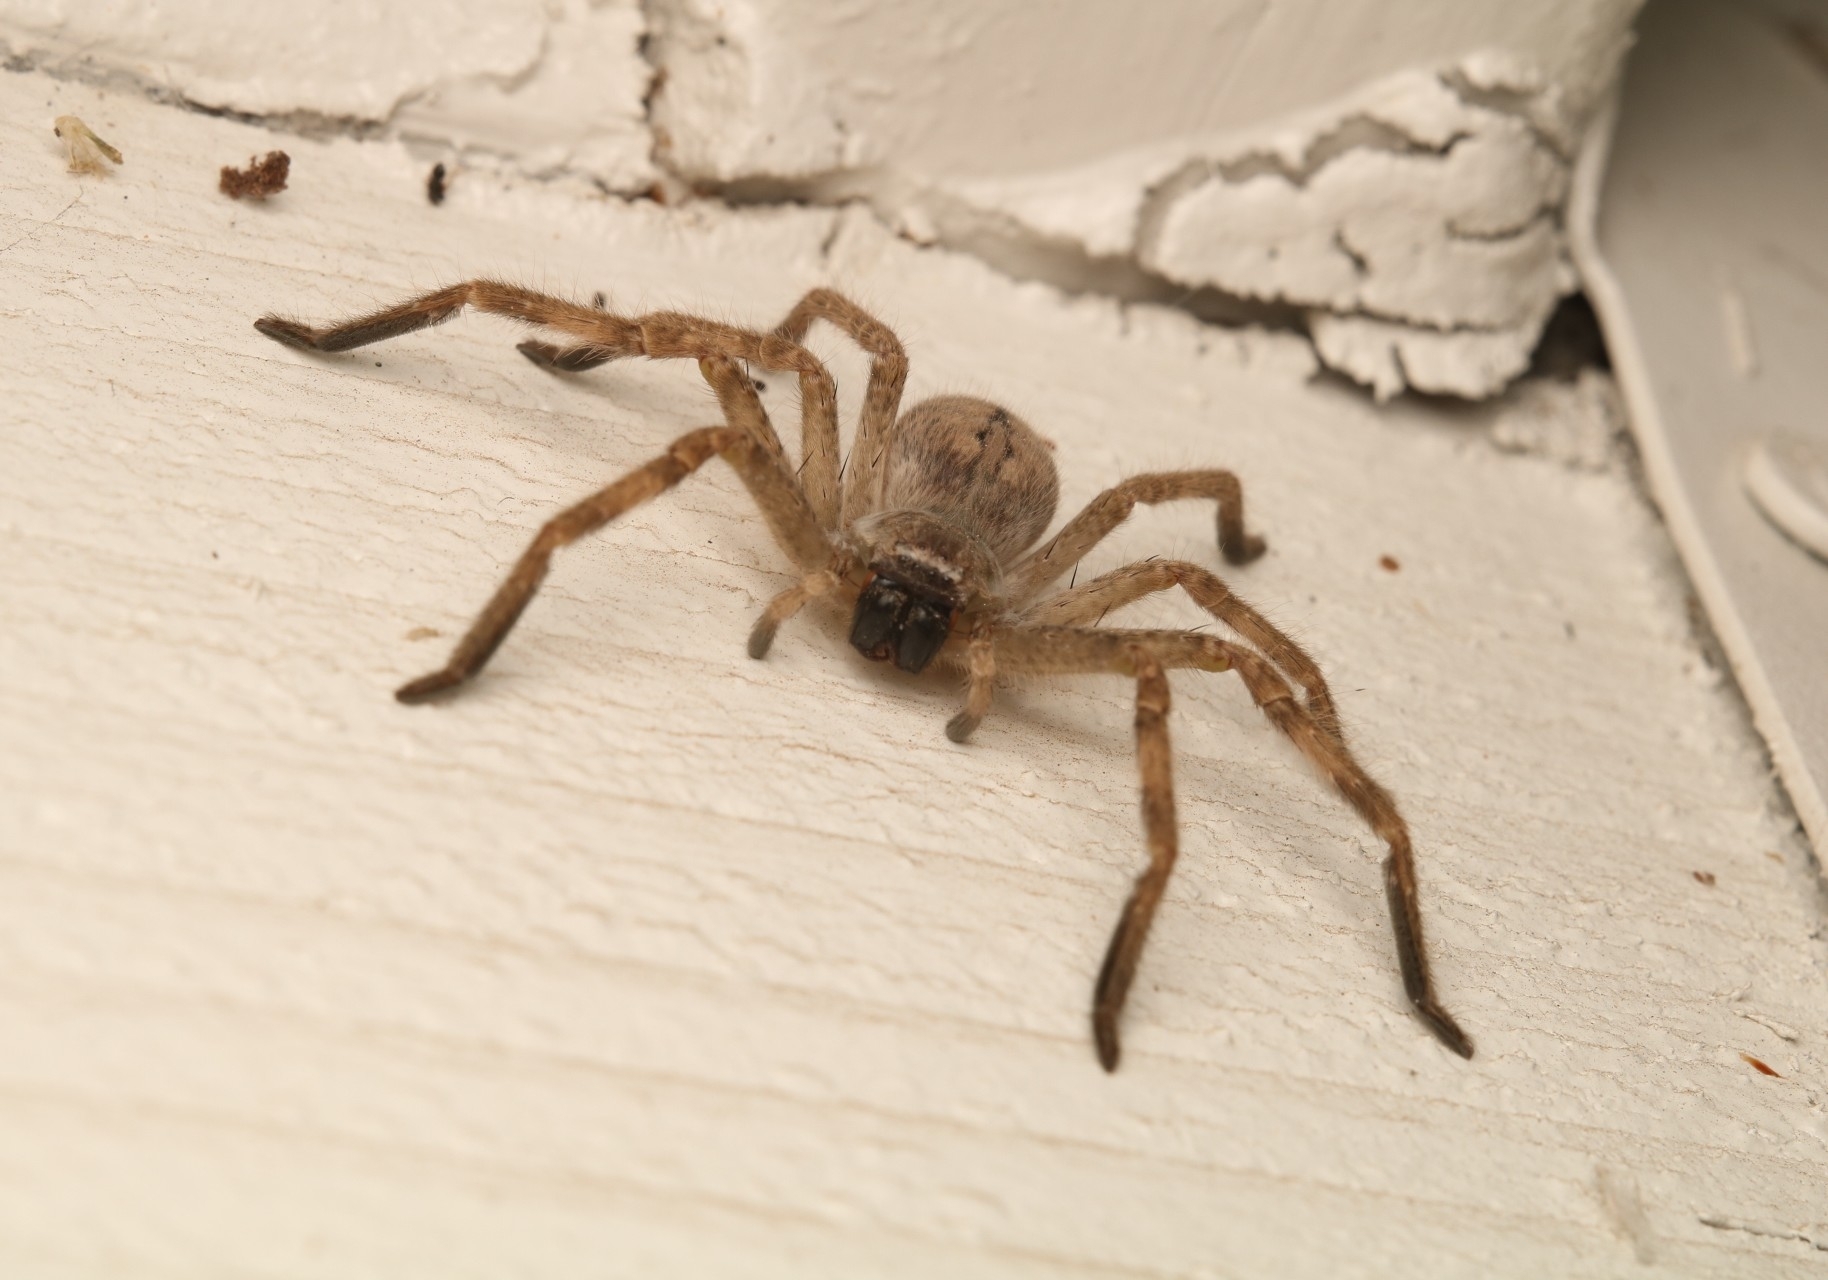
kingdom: Animalia
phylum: Arthropoda
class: Arachnida
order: Araneae
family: Sparassidae
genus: Olios
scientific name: Olios giganteus
